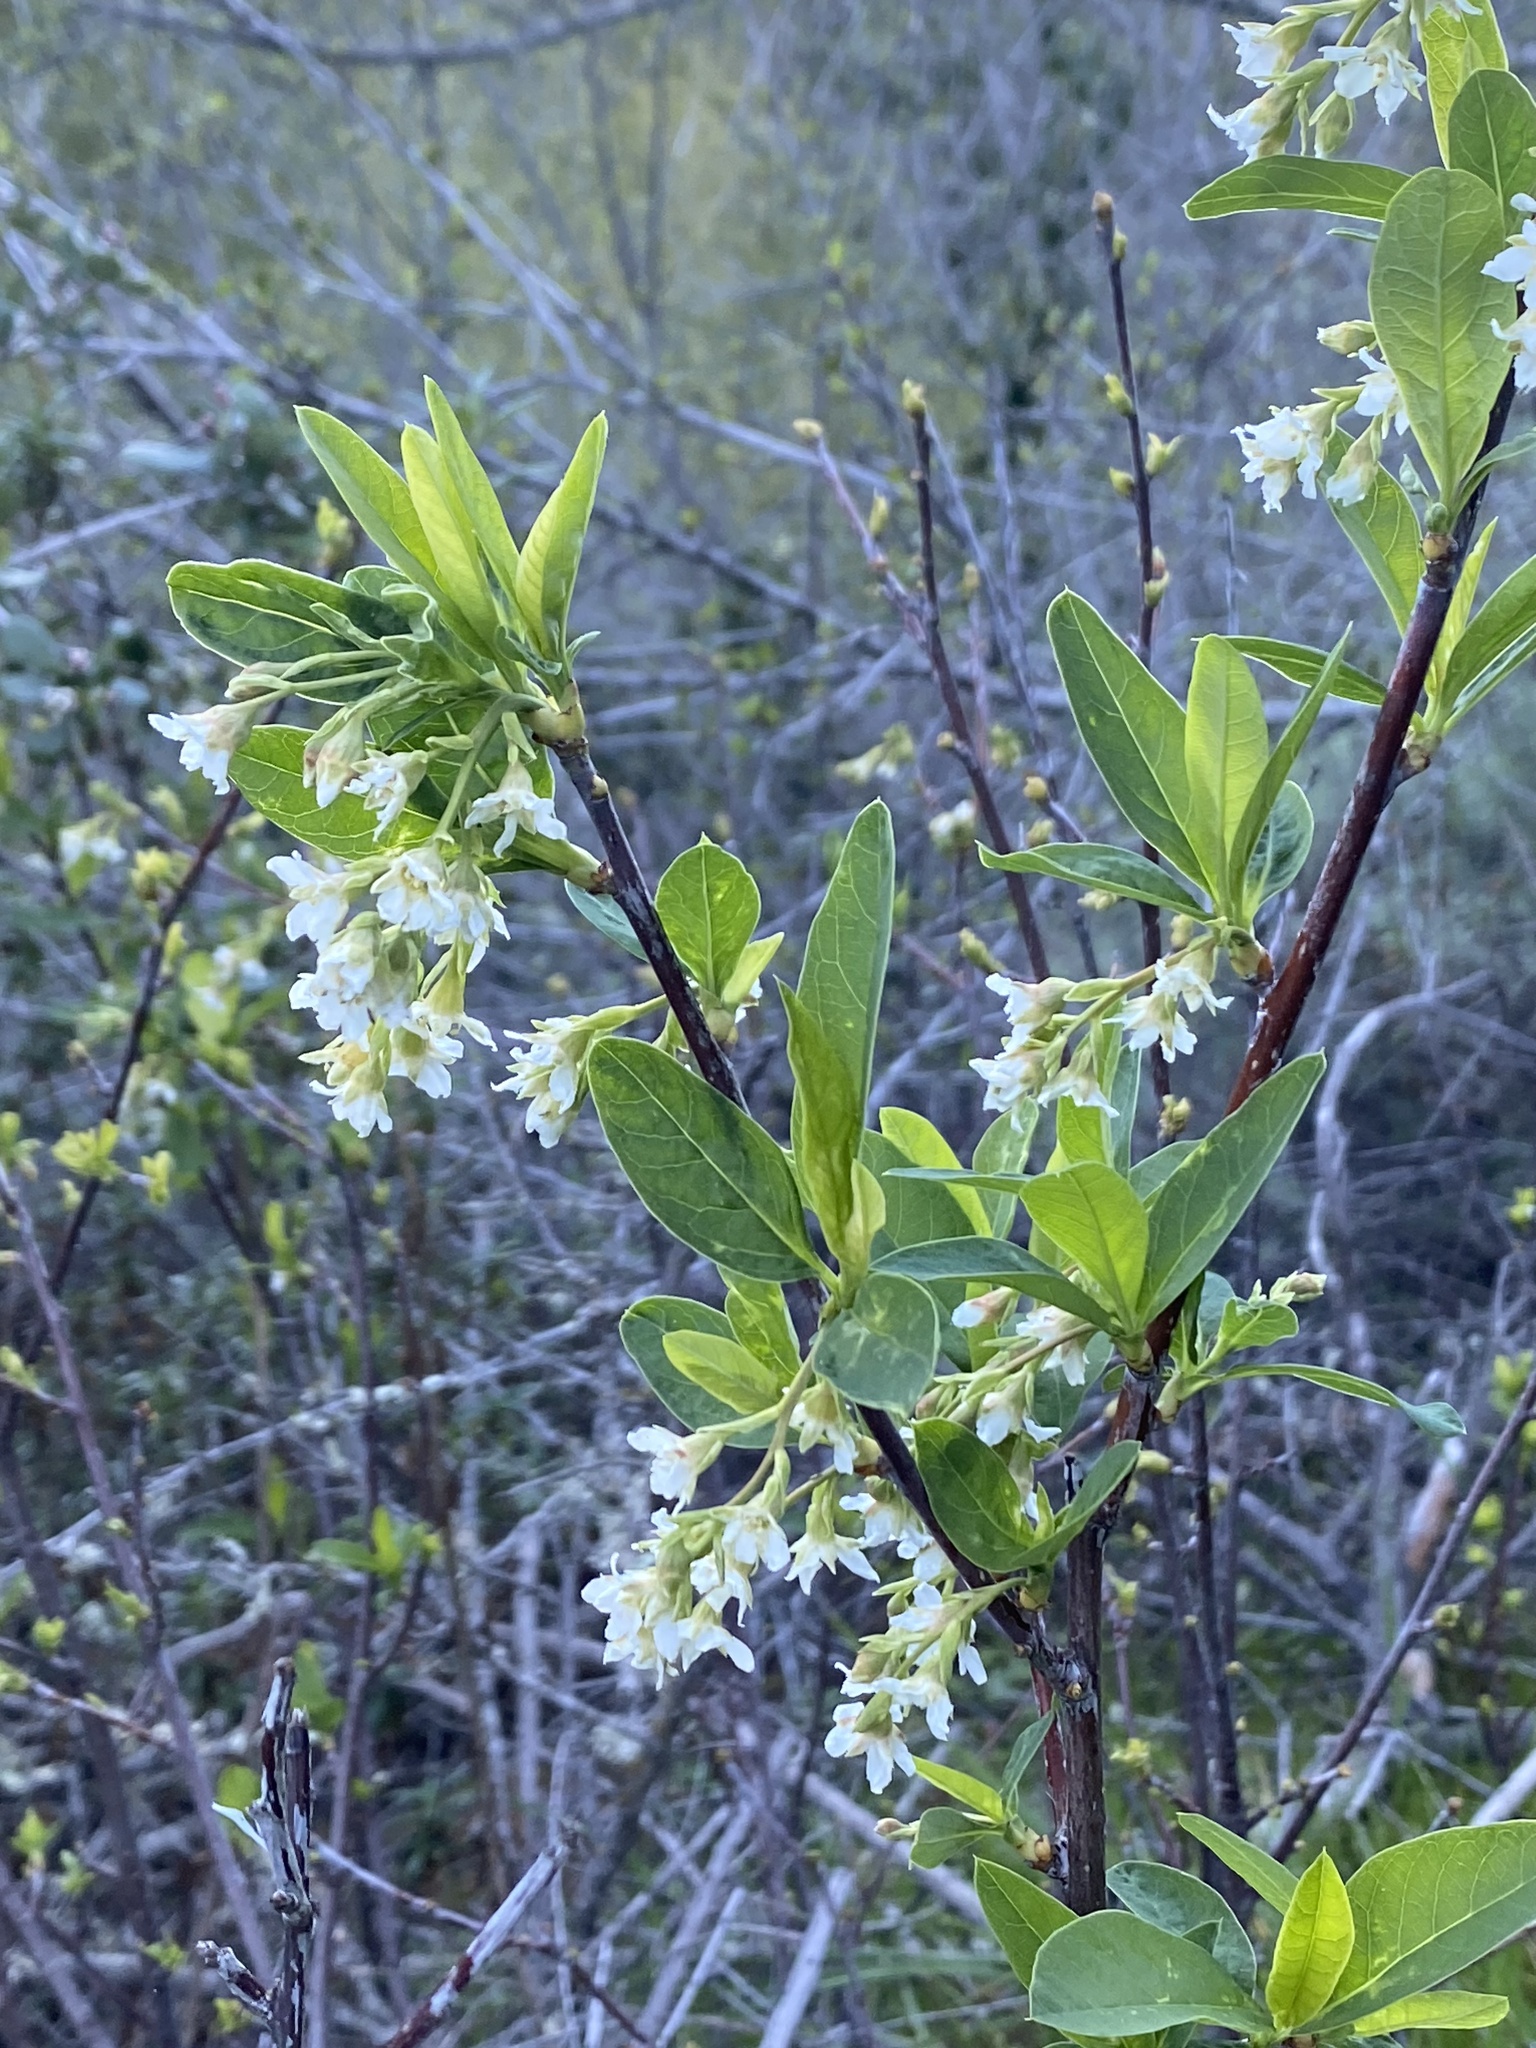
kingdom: Plantae
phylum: Tracheophyta
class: Magnoliopsida
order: Rosales
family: Rosaceae
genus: Oemleria
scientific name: Oemleria cerasiformis
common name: Osoberry
